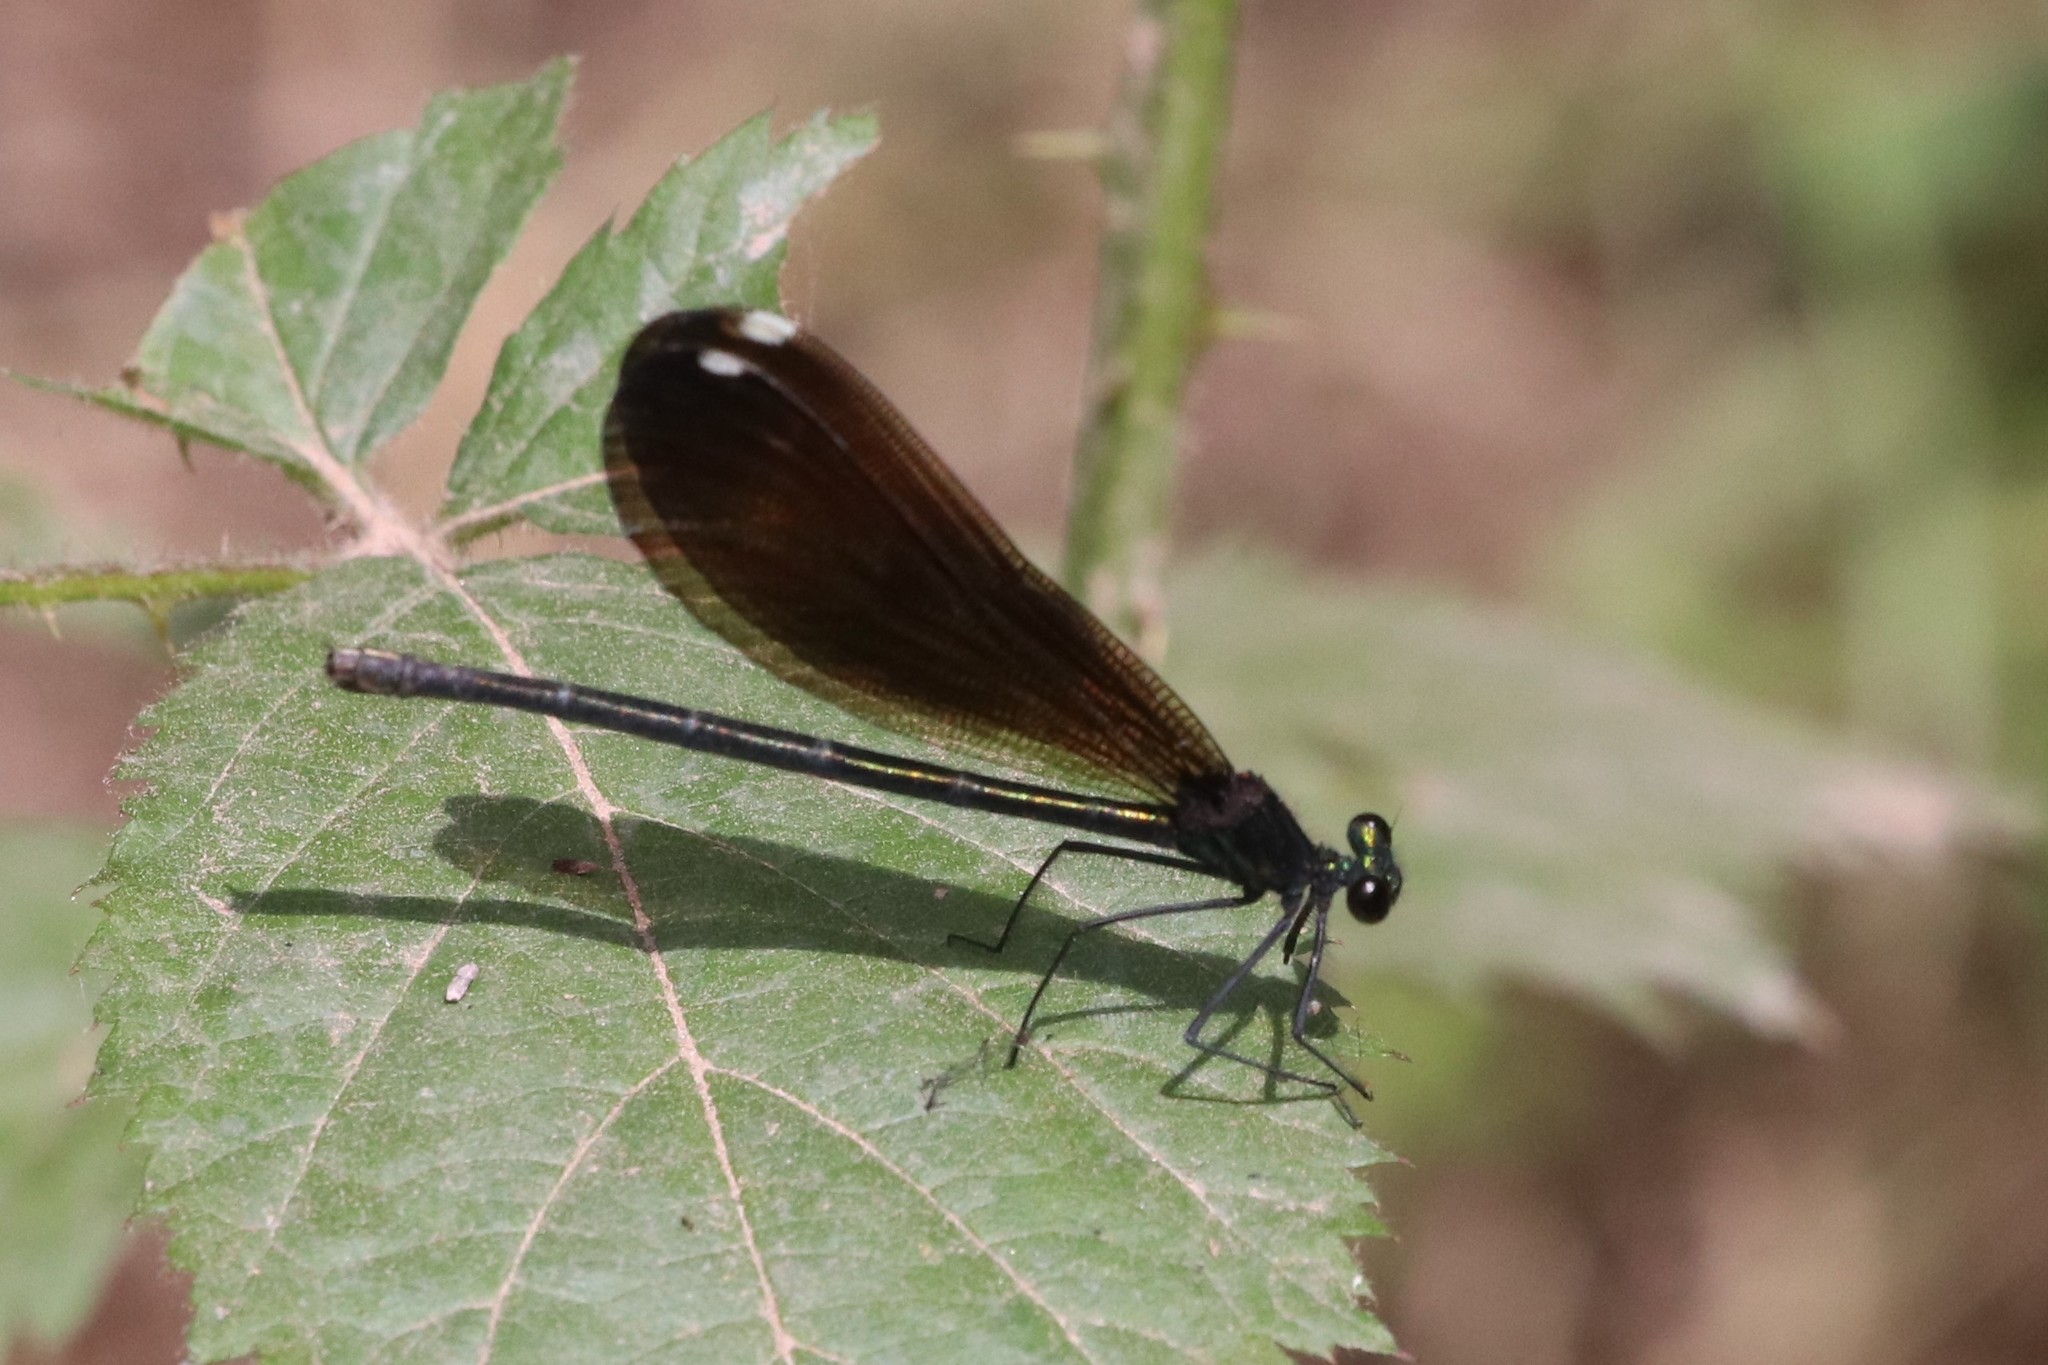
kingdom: Animalia
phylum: Arthropoda
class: Insecta
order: Odonata
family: Calopterygidae
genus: Calopteryx
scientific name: Calopteryx maculata
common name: Ebony jewelwing
